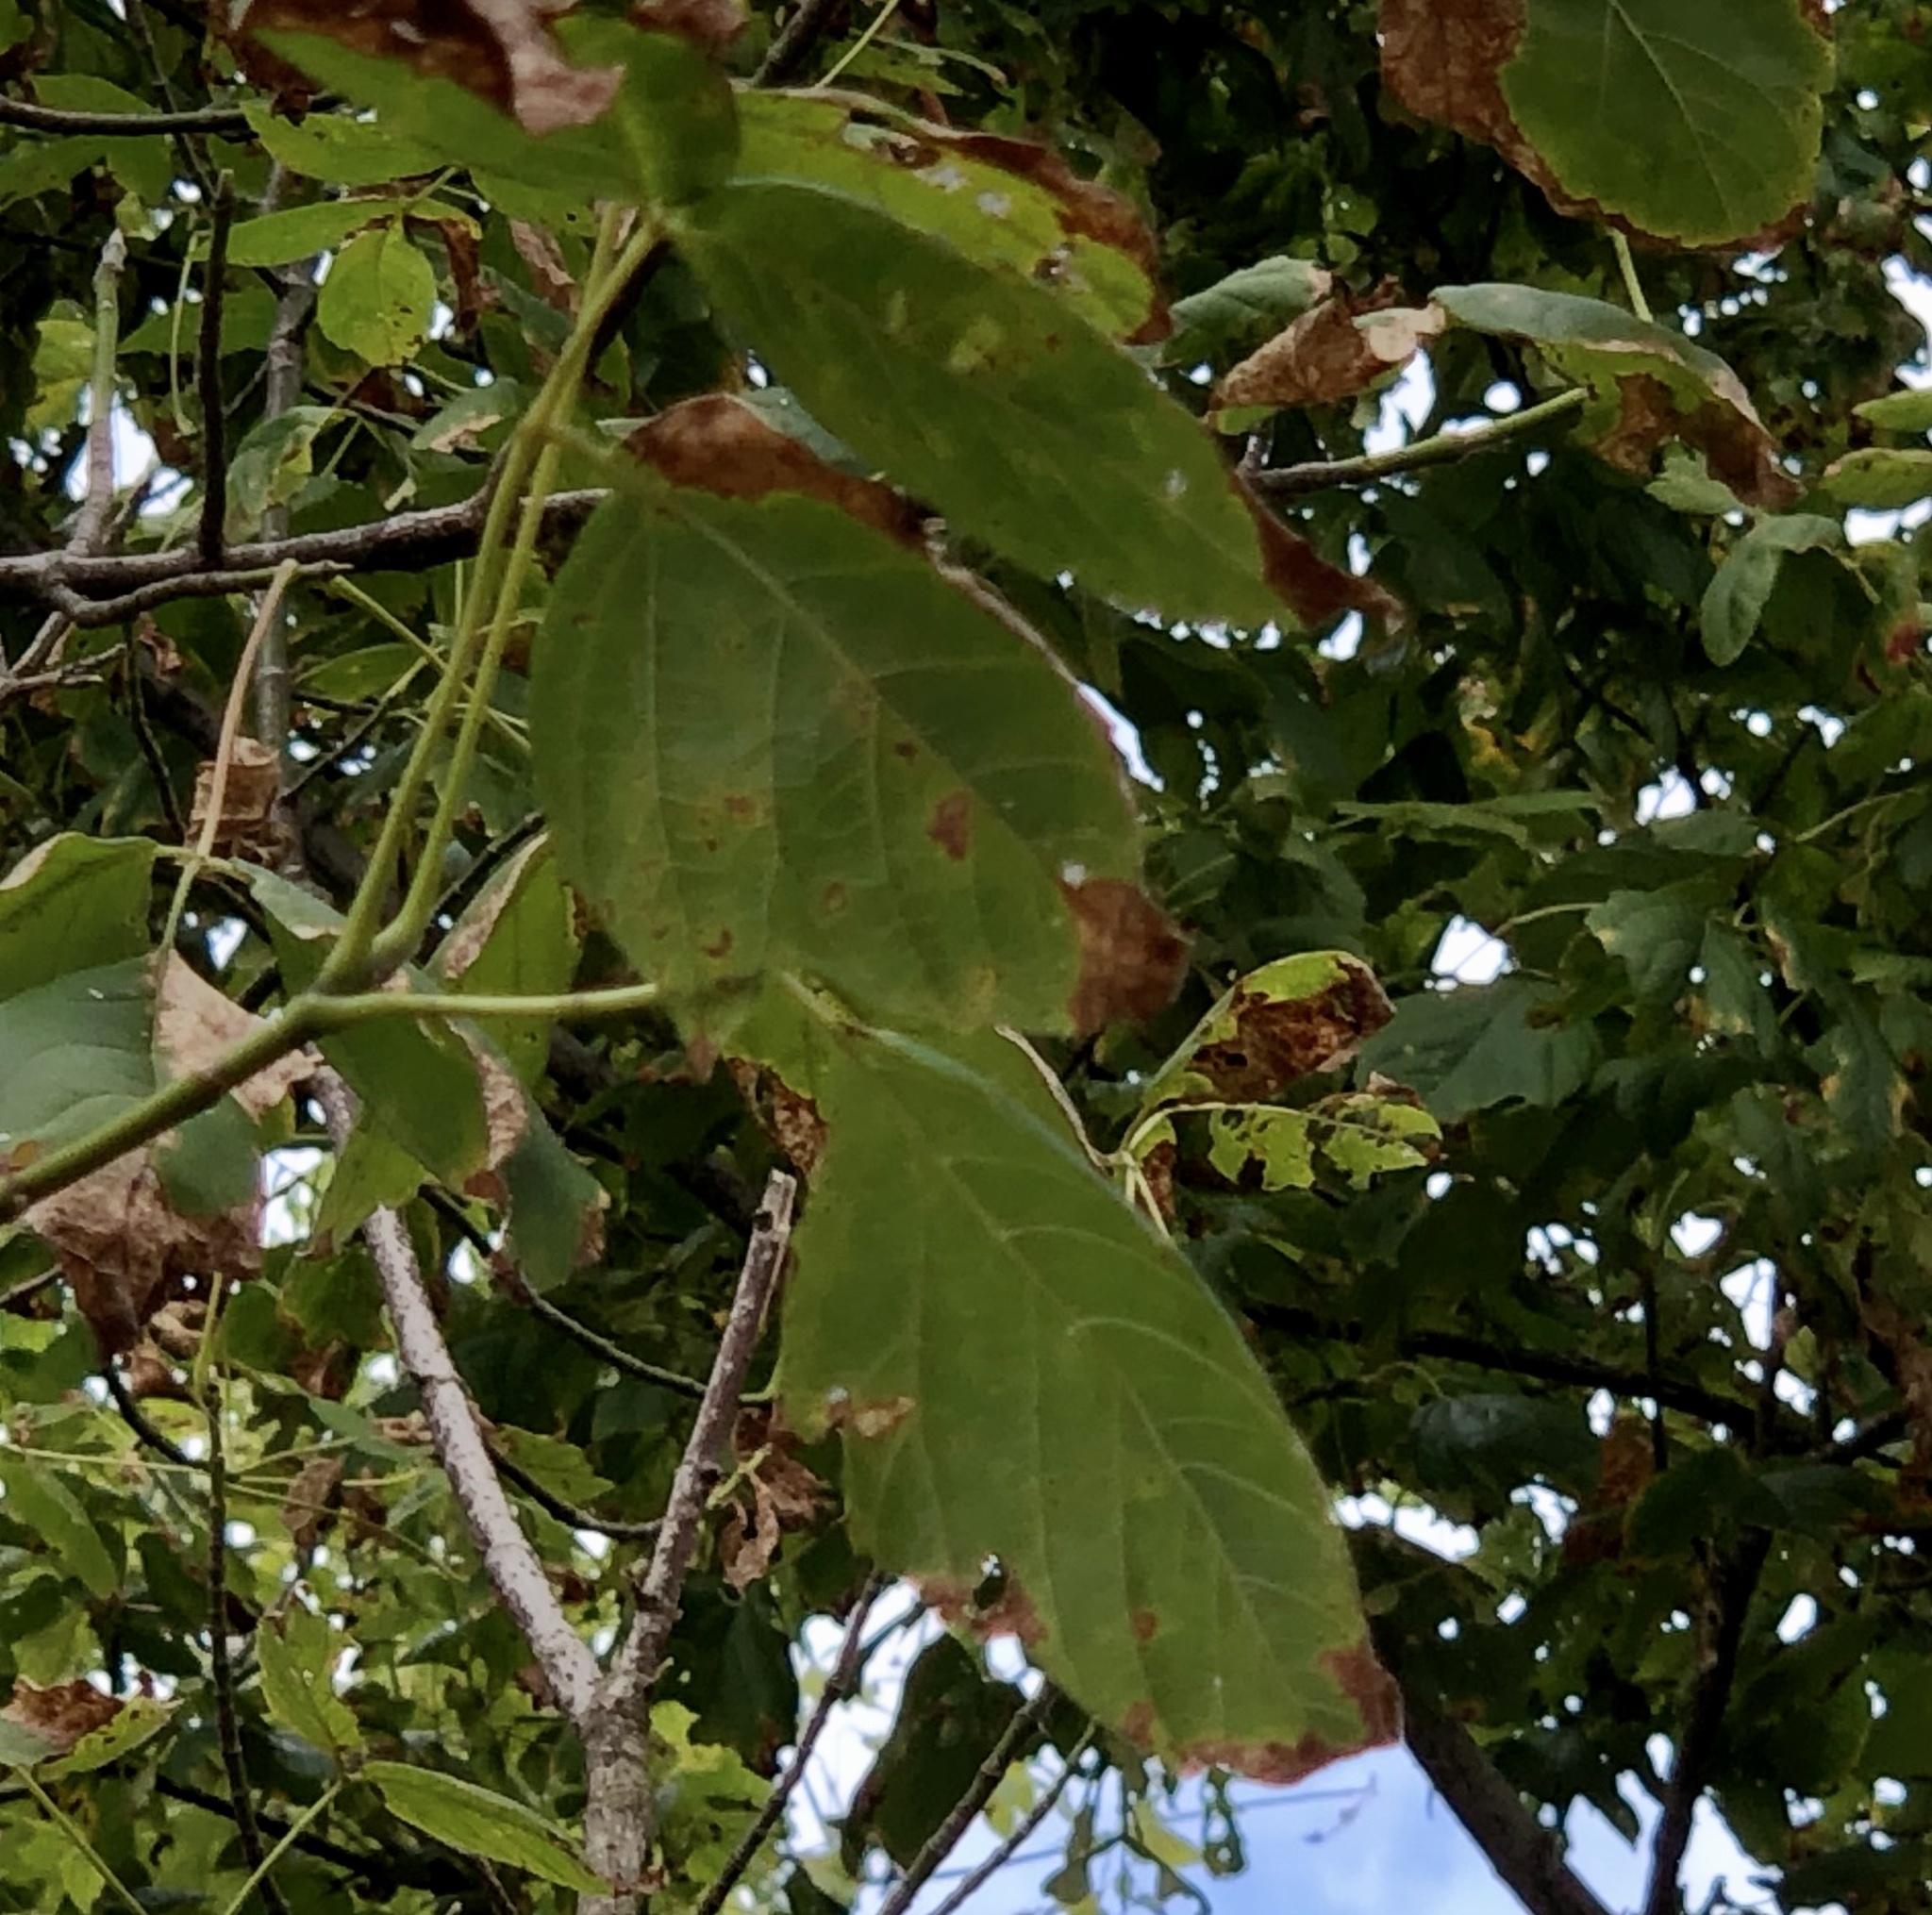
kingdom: Plantae
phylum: Tracheophyta
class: Magnoliopsida
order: Sapindales
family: Sapindaceae
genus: Acer
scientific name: Acer negundo
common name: Ashleaf maple
